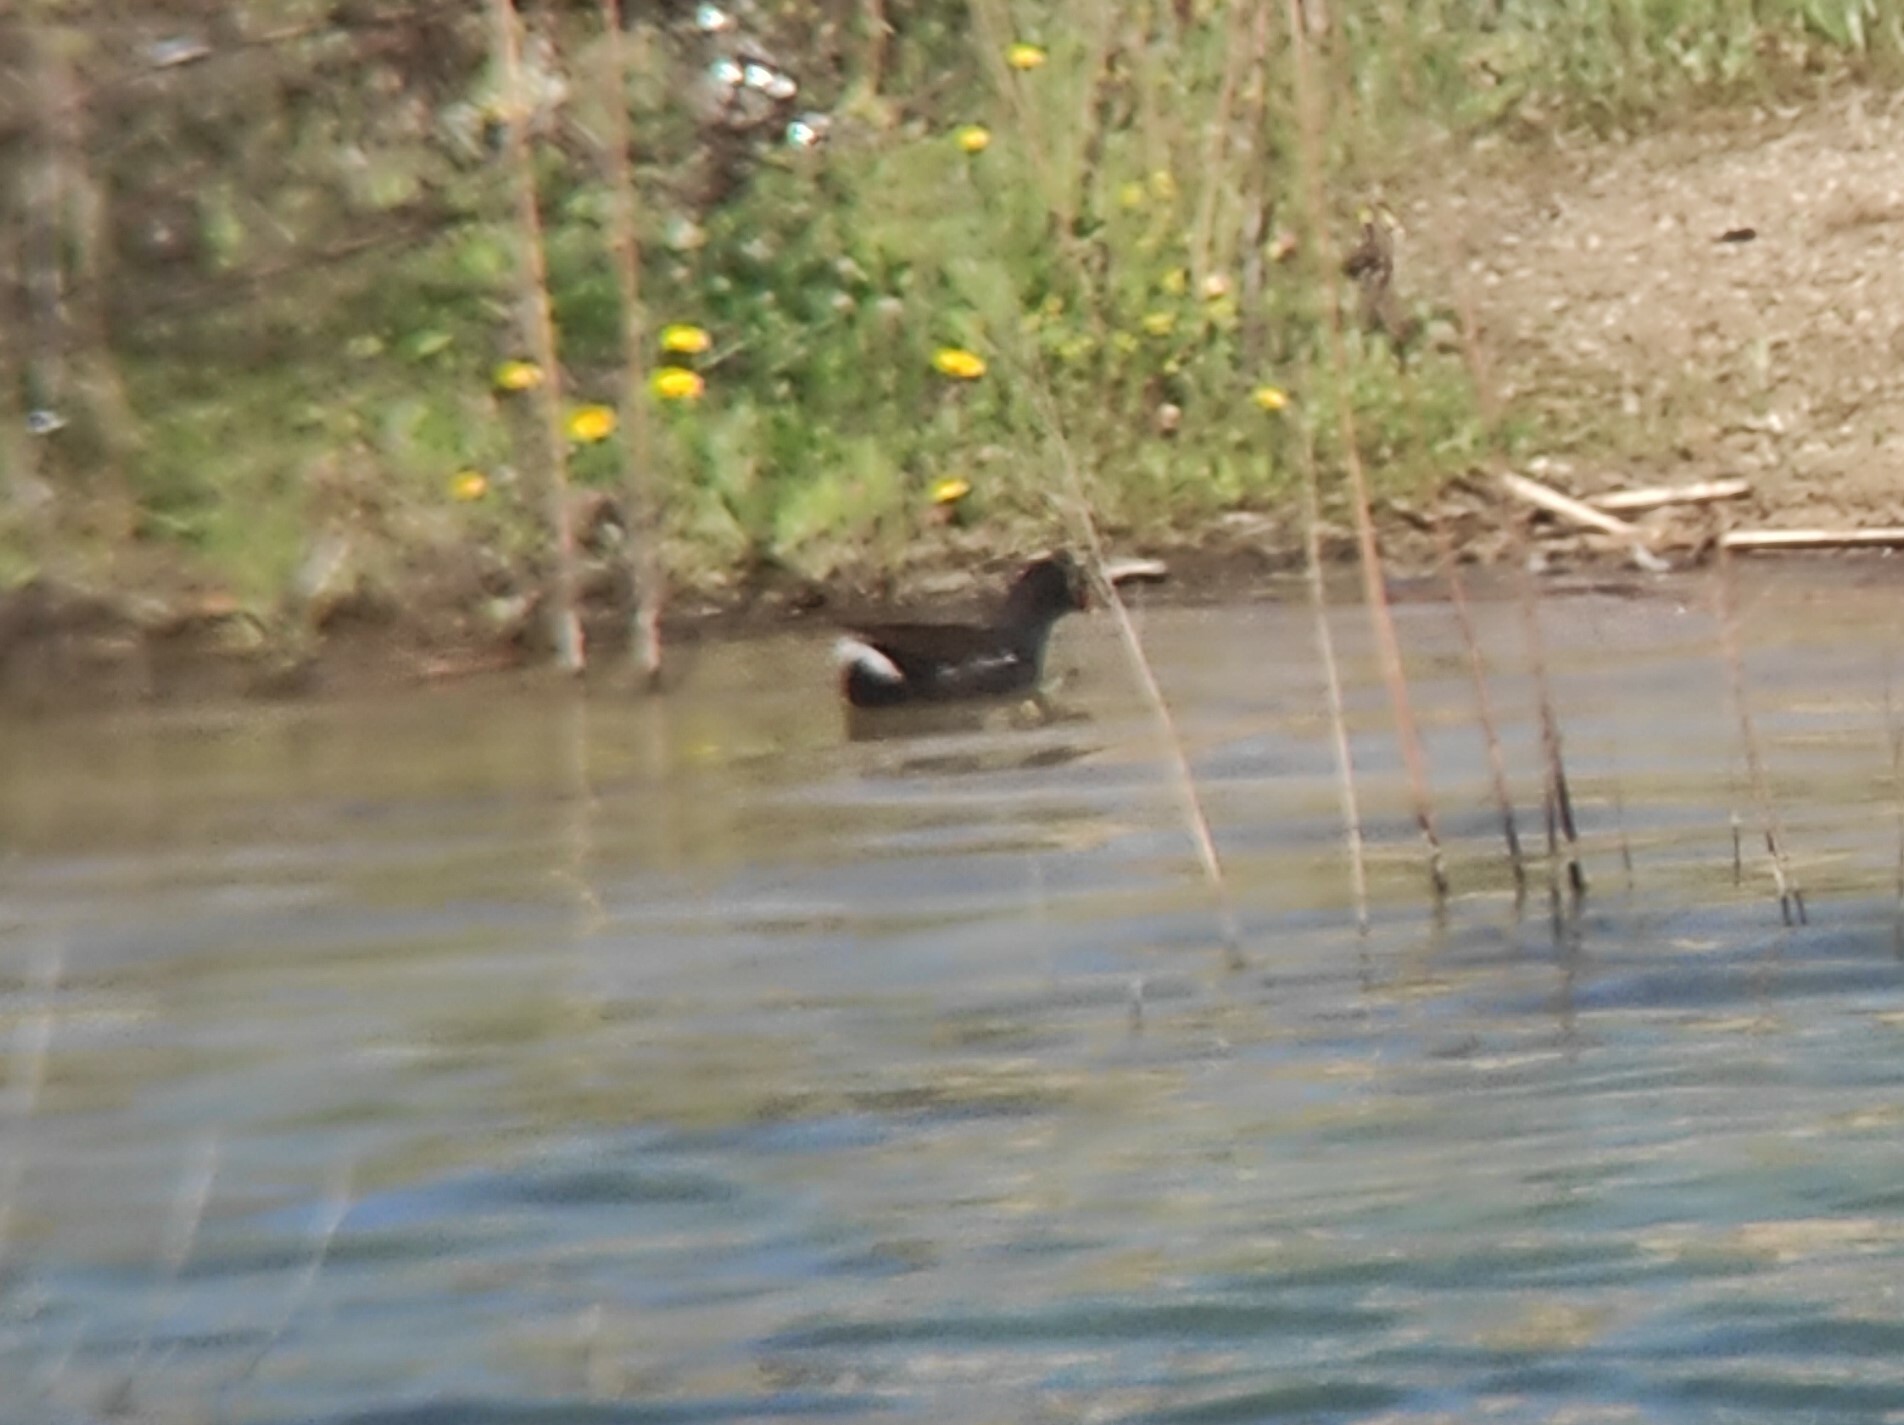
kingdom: Animalia
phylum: Chordata
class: Aves
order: Gruiformes
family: Rallidae
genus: Gallinula
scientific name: Gallinula chloropus
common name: Common moorhen
